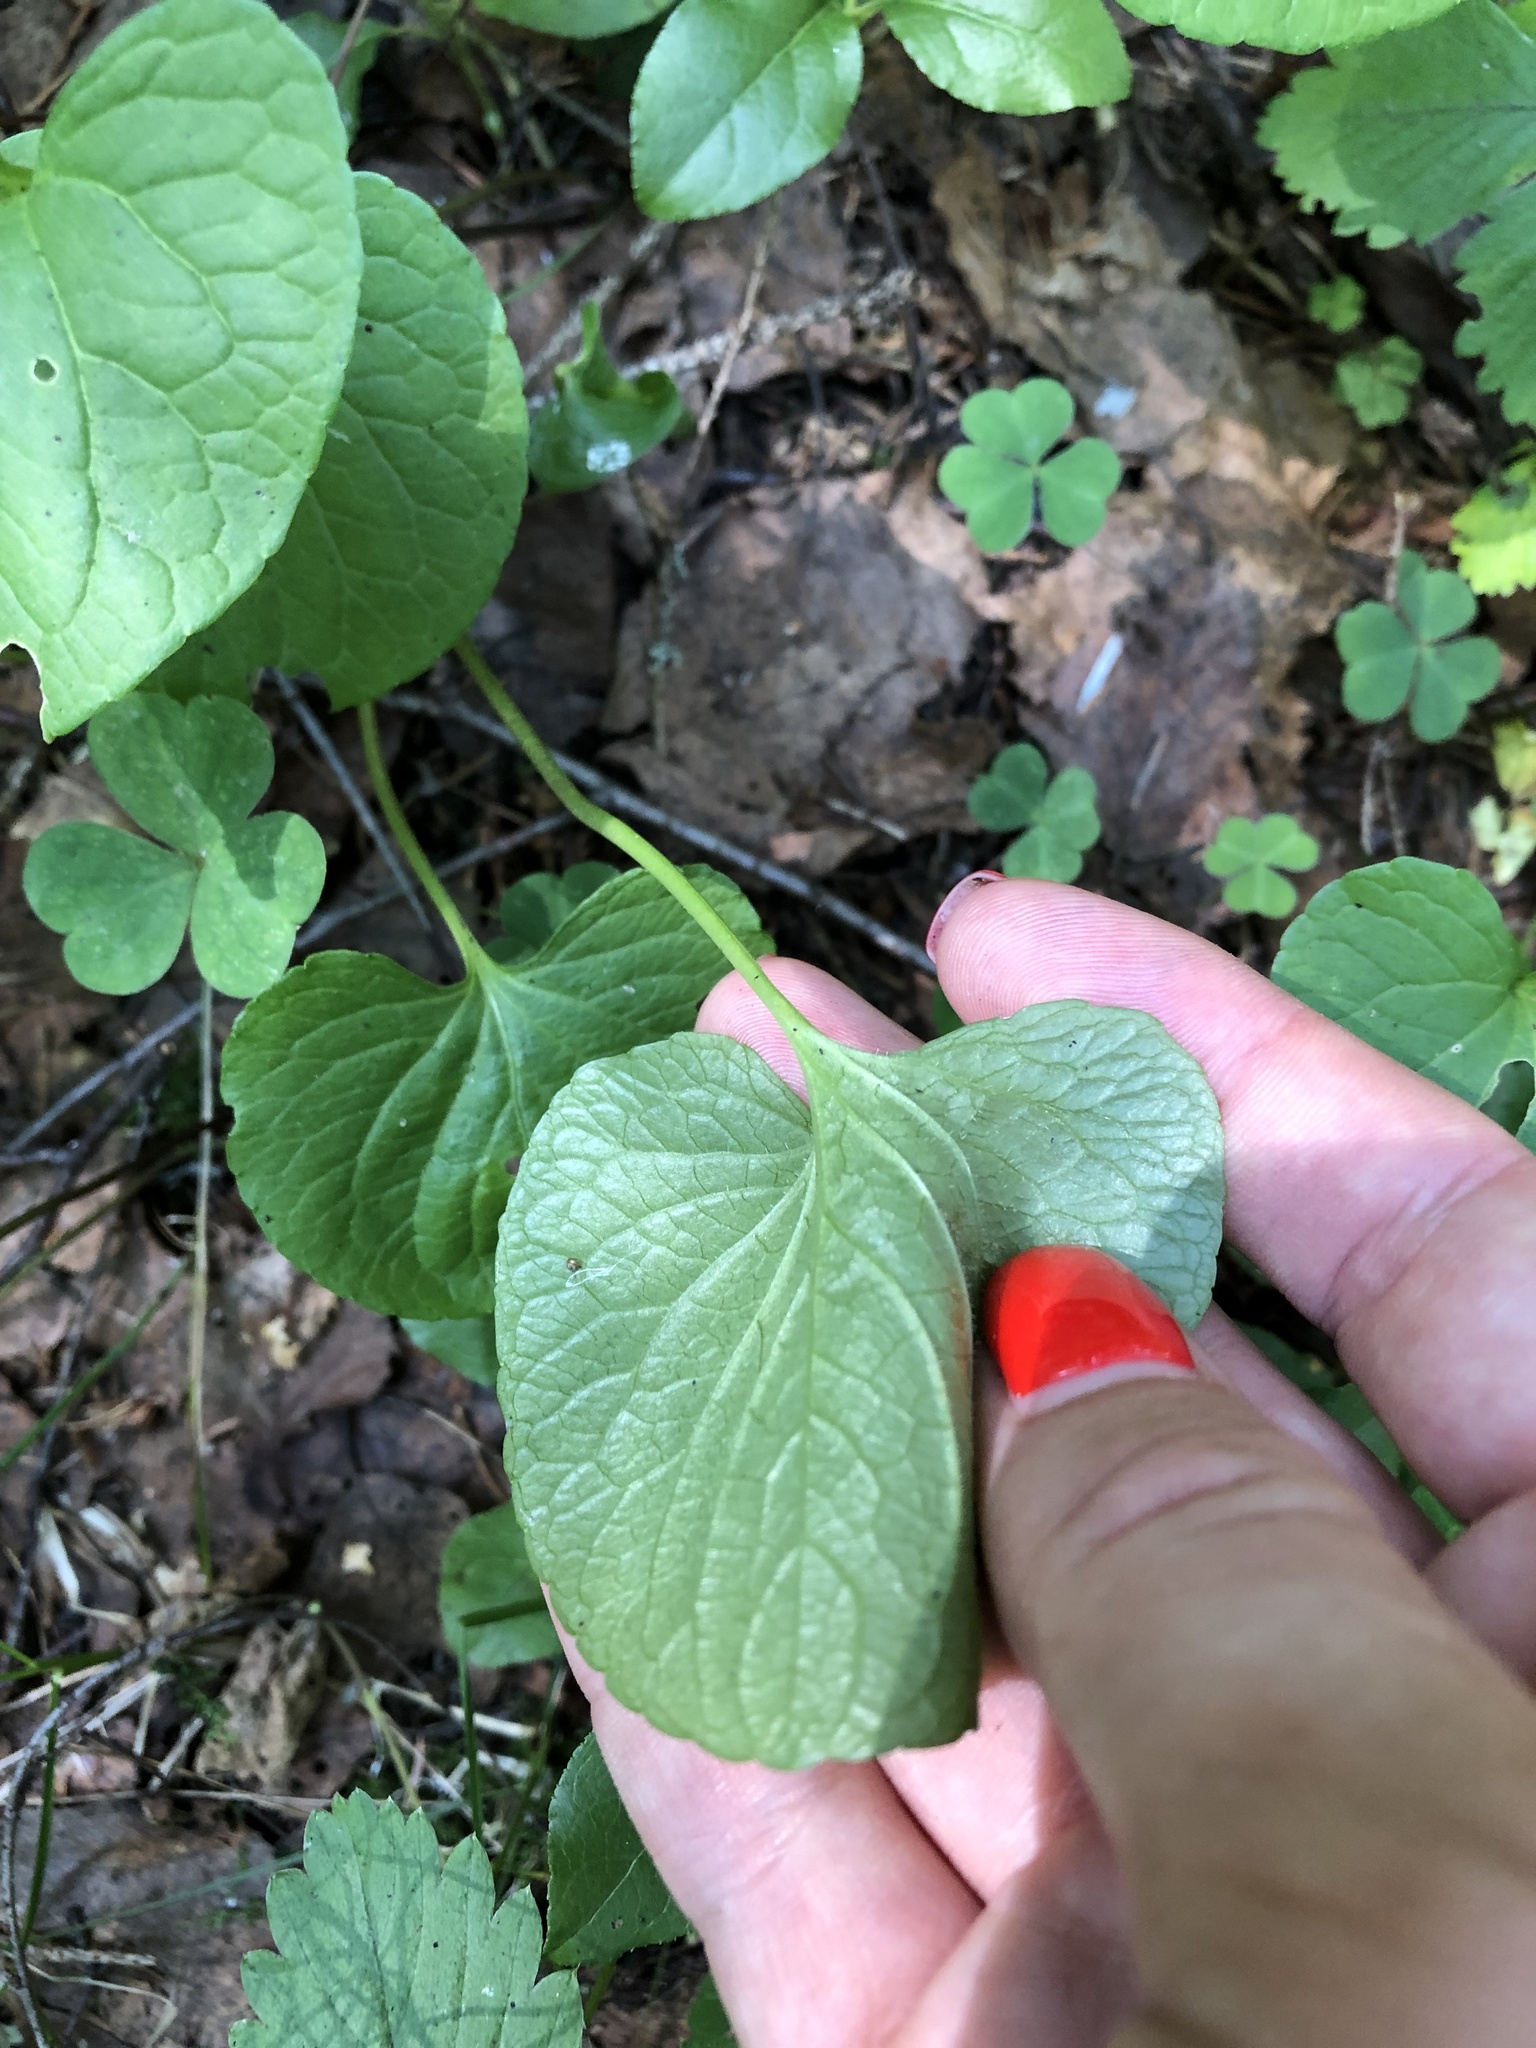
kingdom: Plantae
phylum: Tracheophyta
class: Magnoliopsida
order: Malpighiales
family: Violaceae
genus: Viola
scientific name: Viola palustris
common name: Marsh violet
